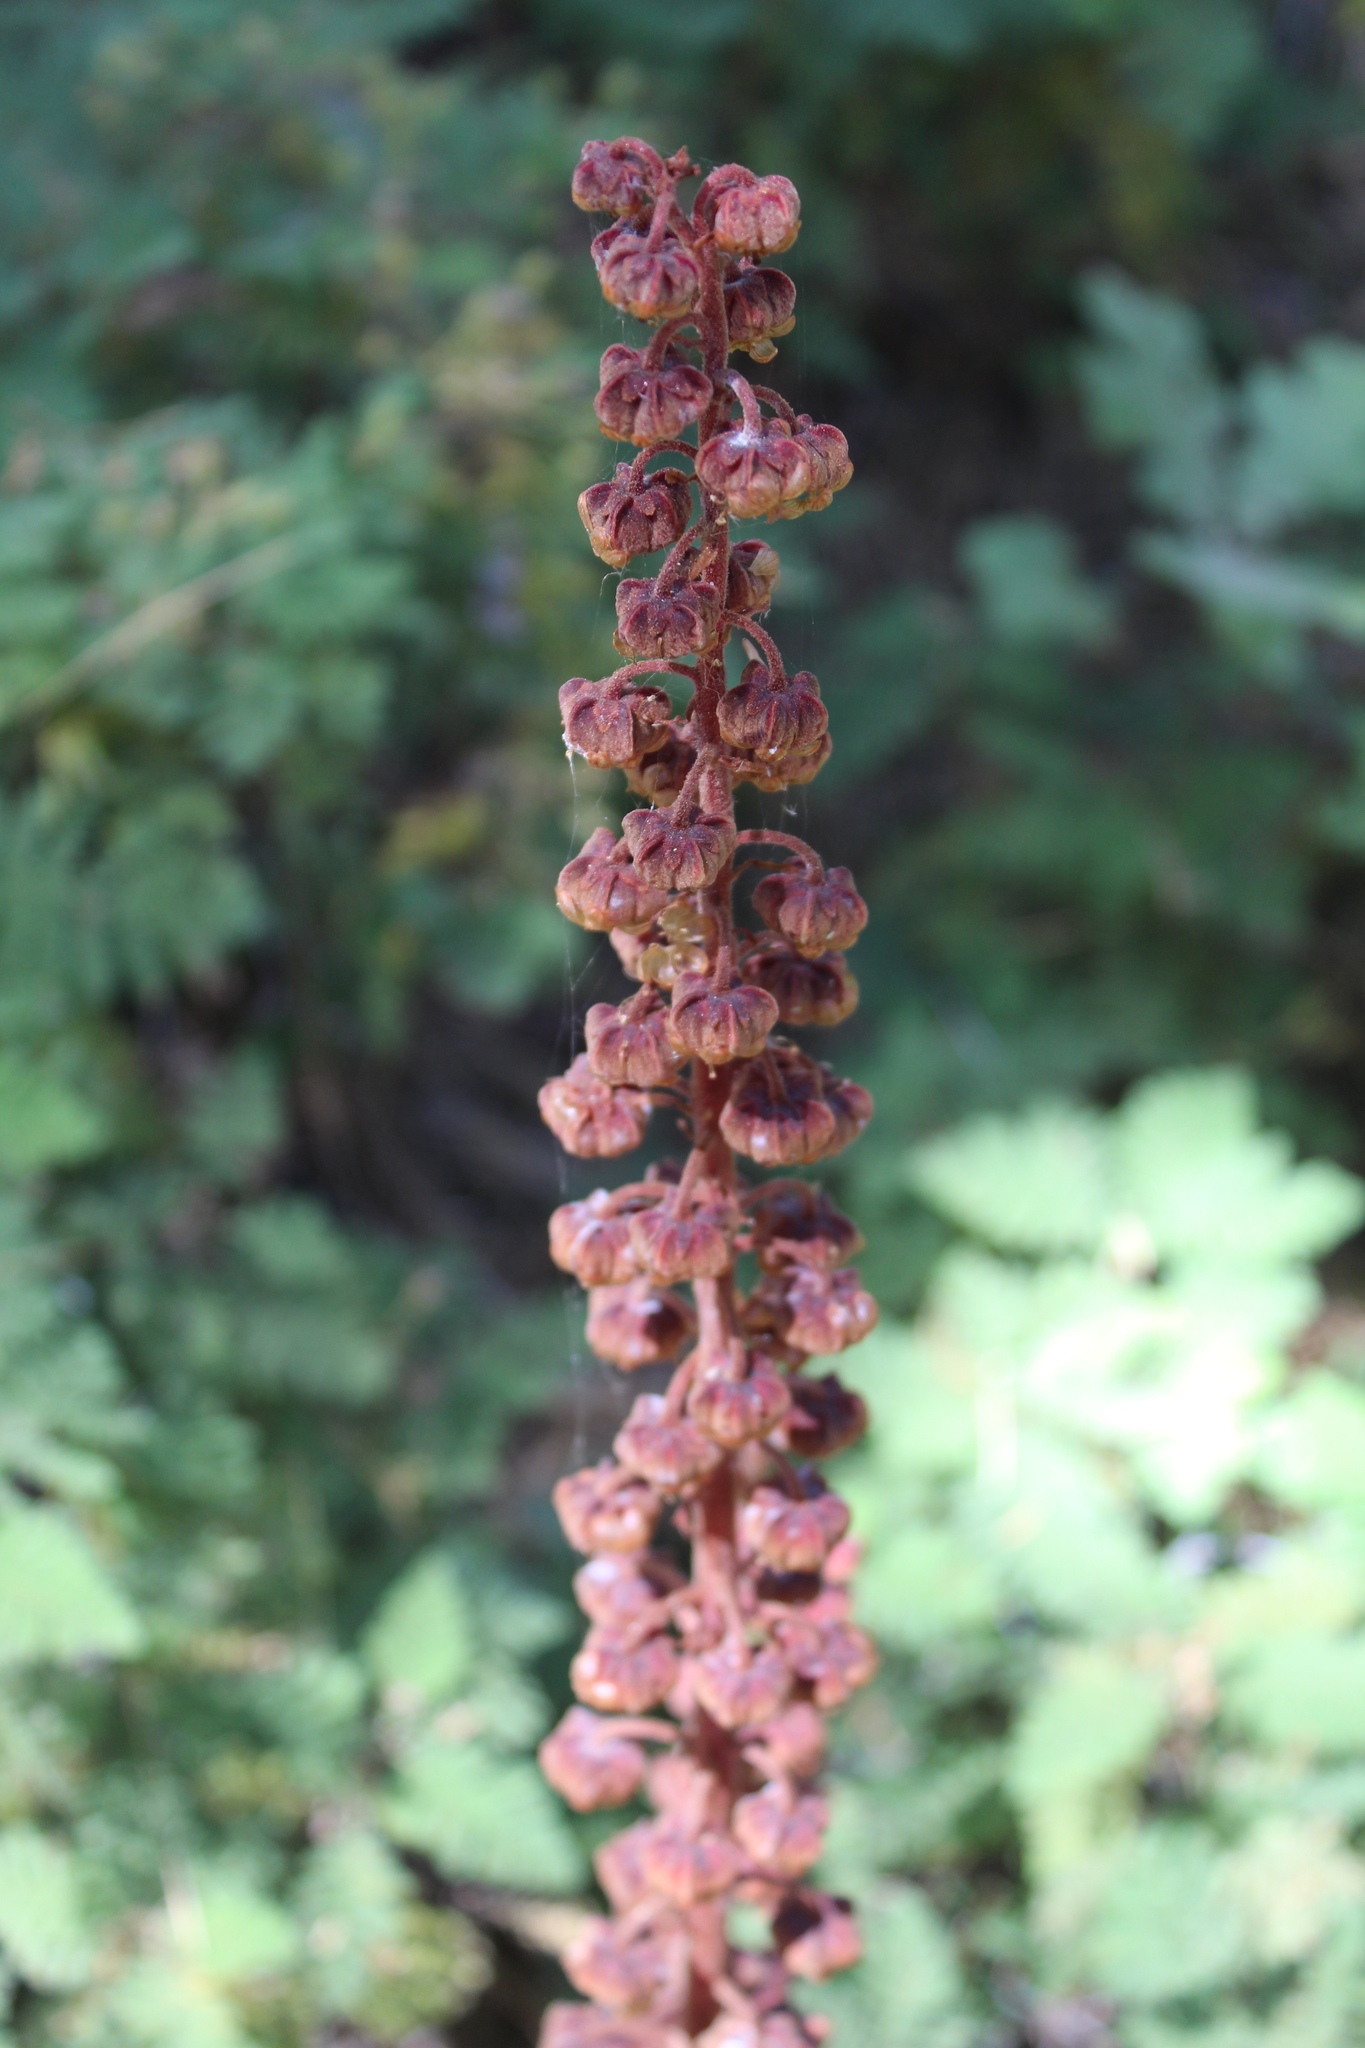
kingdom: Plantae
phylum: Tracheophyta
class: Magnoliopsida
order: Ericales
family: Ericaceae
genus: Pterospora
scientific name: Pterospora andromedea
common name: Giant bird's-nest
